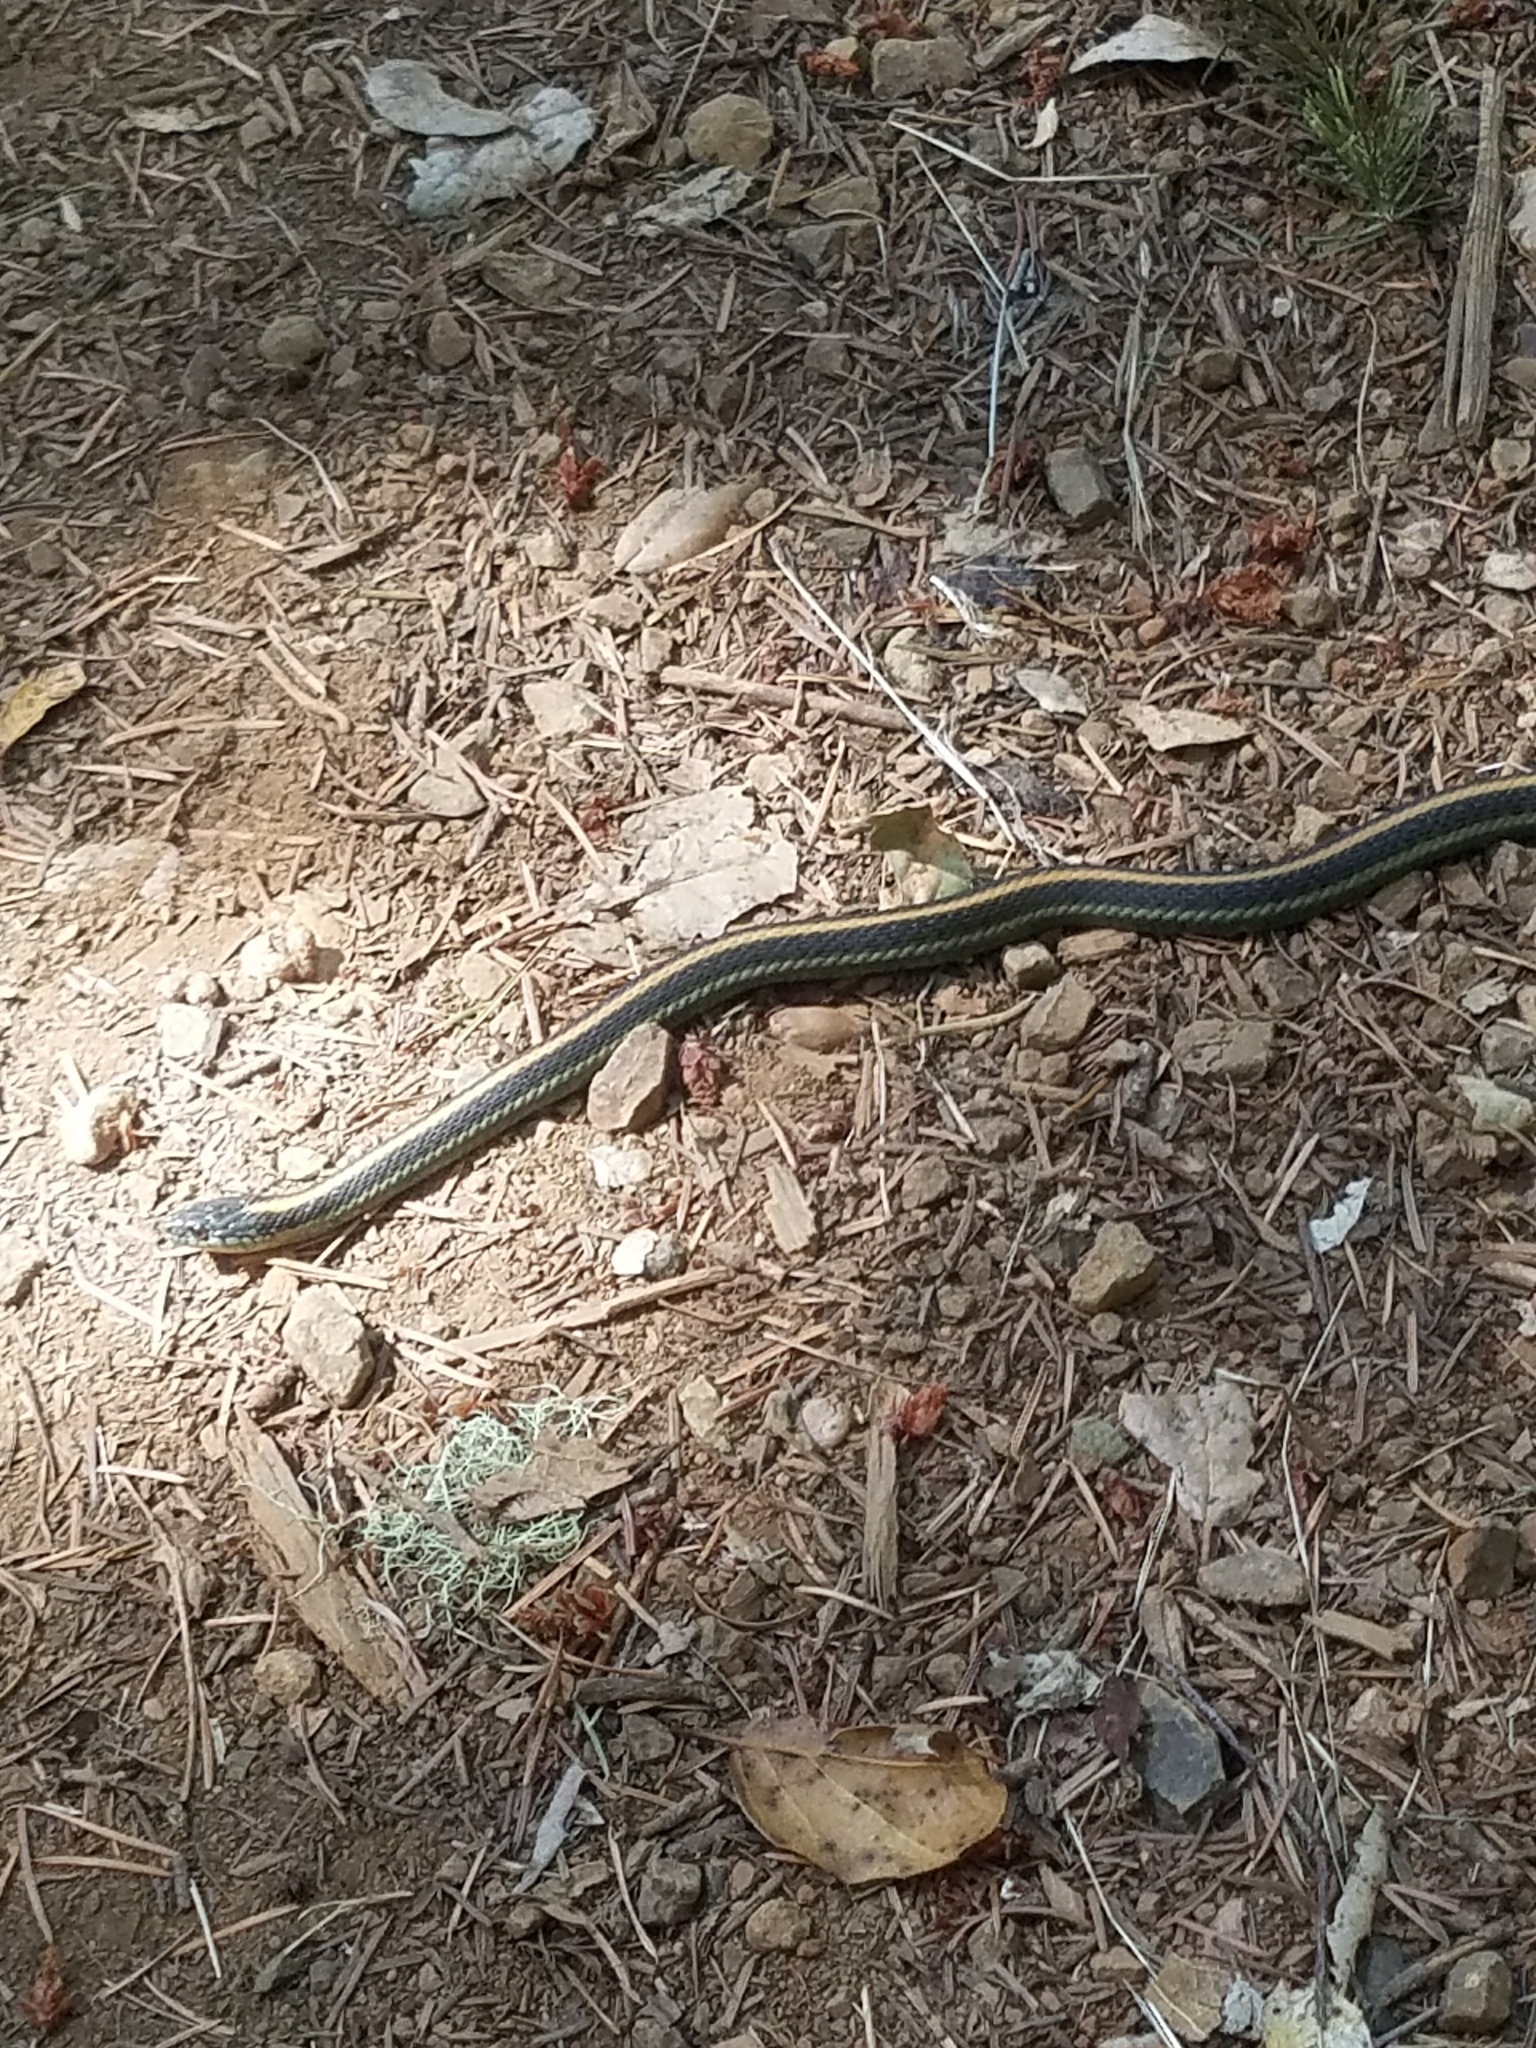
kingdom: Animalia
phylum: Chordata
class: Squamata
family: Colubridae
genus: Thamnophis
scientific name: Thamnophis atratus
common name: Pacific coast aquatic garter snake
